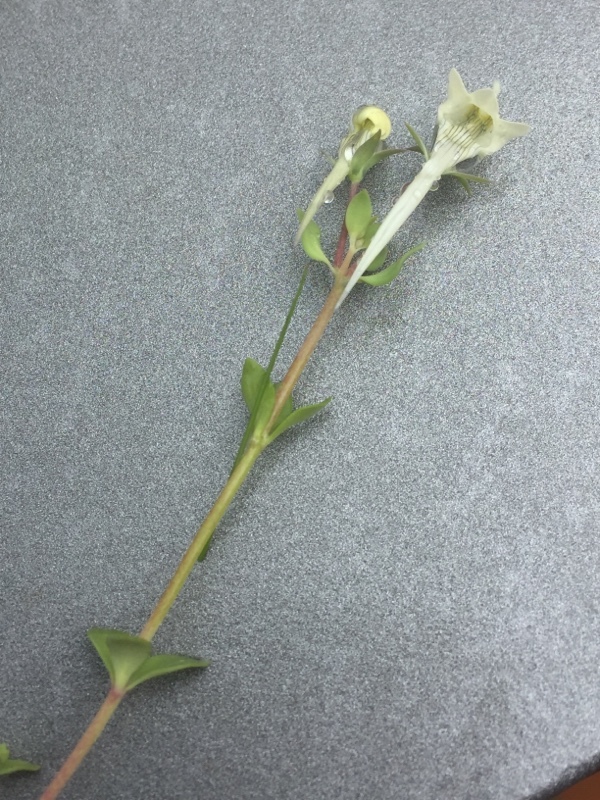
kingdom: Plantae
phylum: Tracheophyta
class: Magnoliopsida
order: Lamiales
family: Plantaginaceae
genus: Linaria
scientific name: Linaria reflexa
